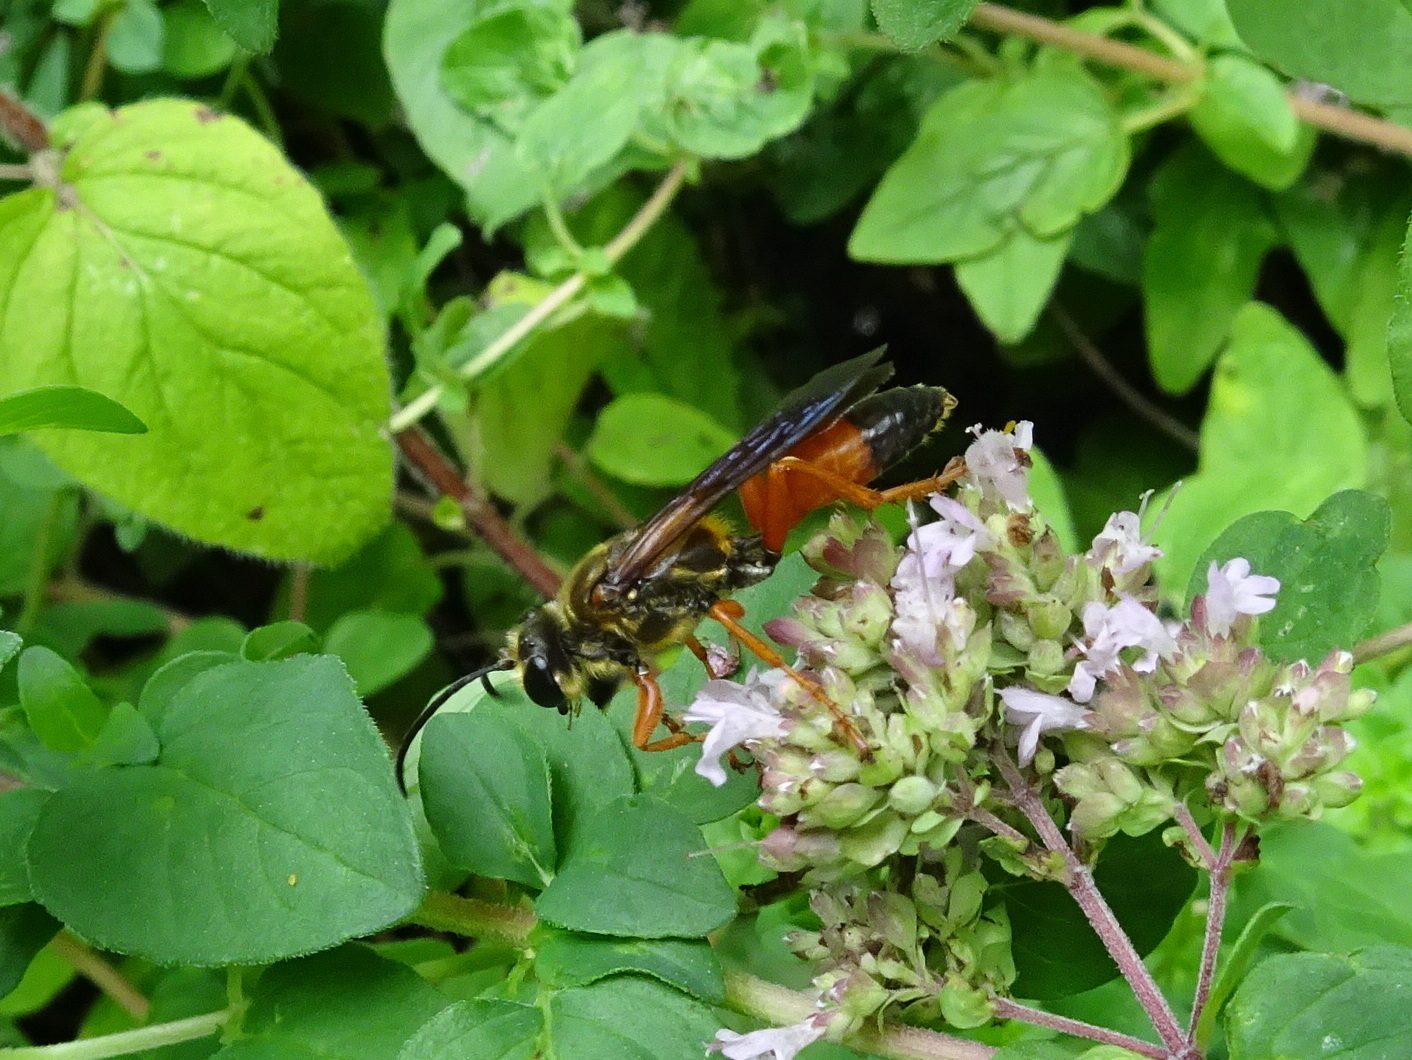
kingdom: Animalia
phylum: Arthropoda
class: Insecta
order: Hymenoptera
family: Sphecidae
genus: Sphex
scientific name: Sphex ichneumoneus
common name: Great golden digger wasp
